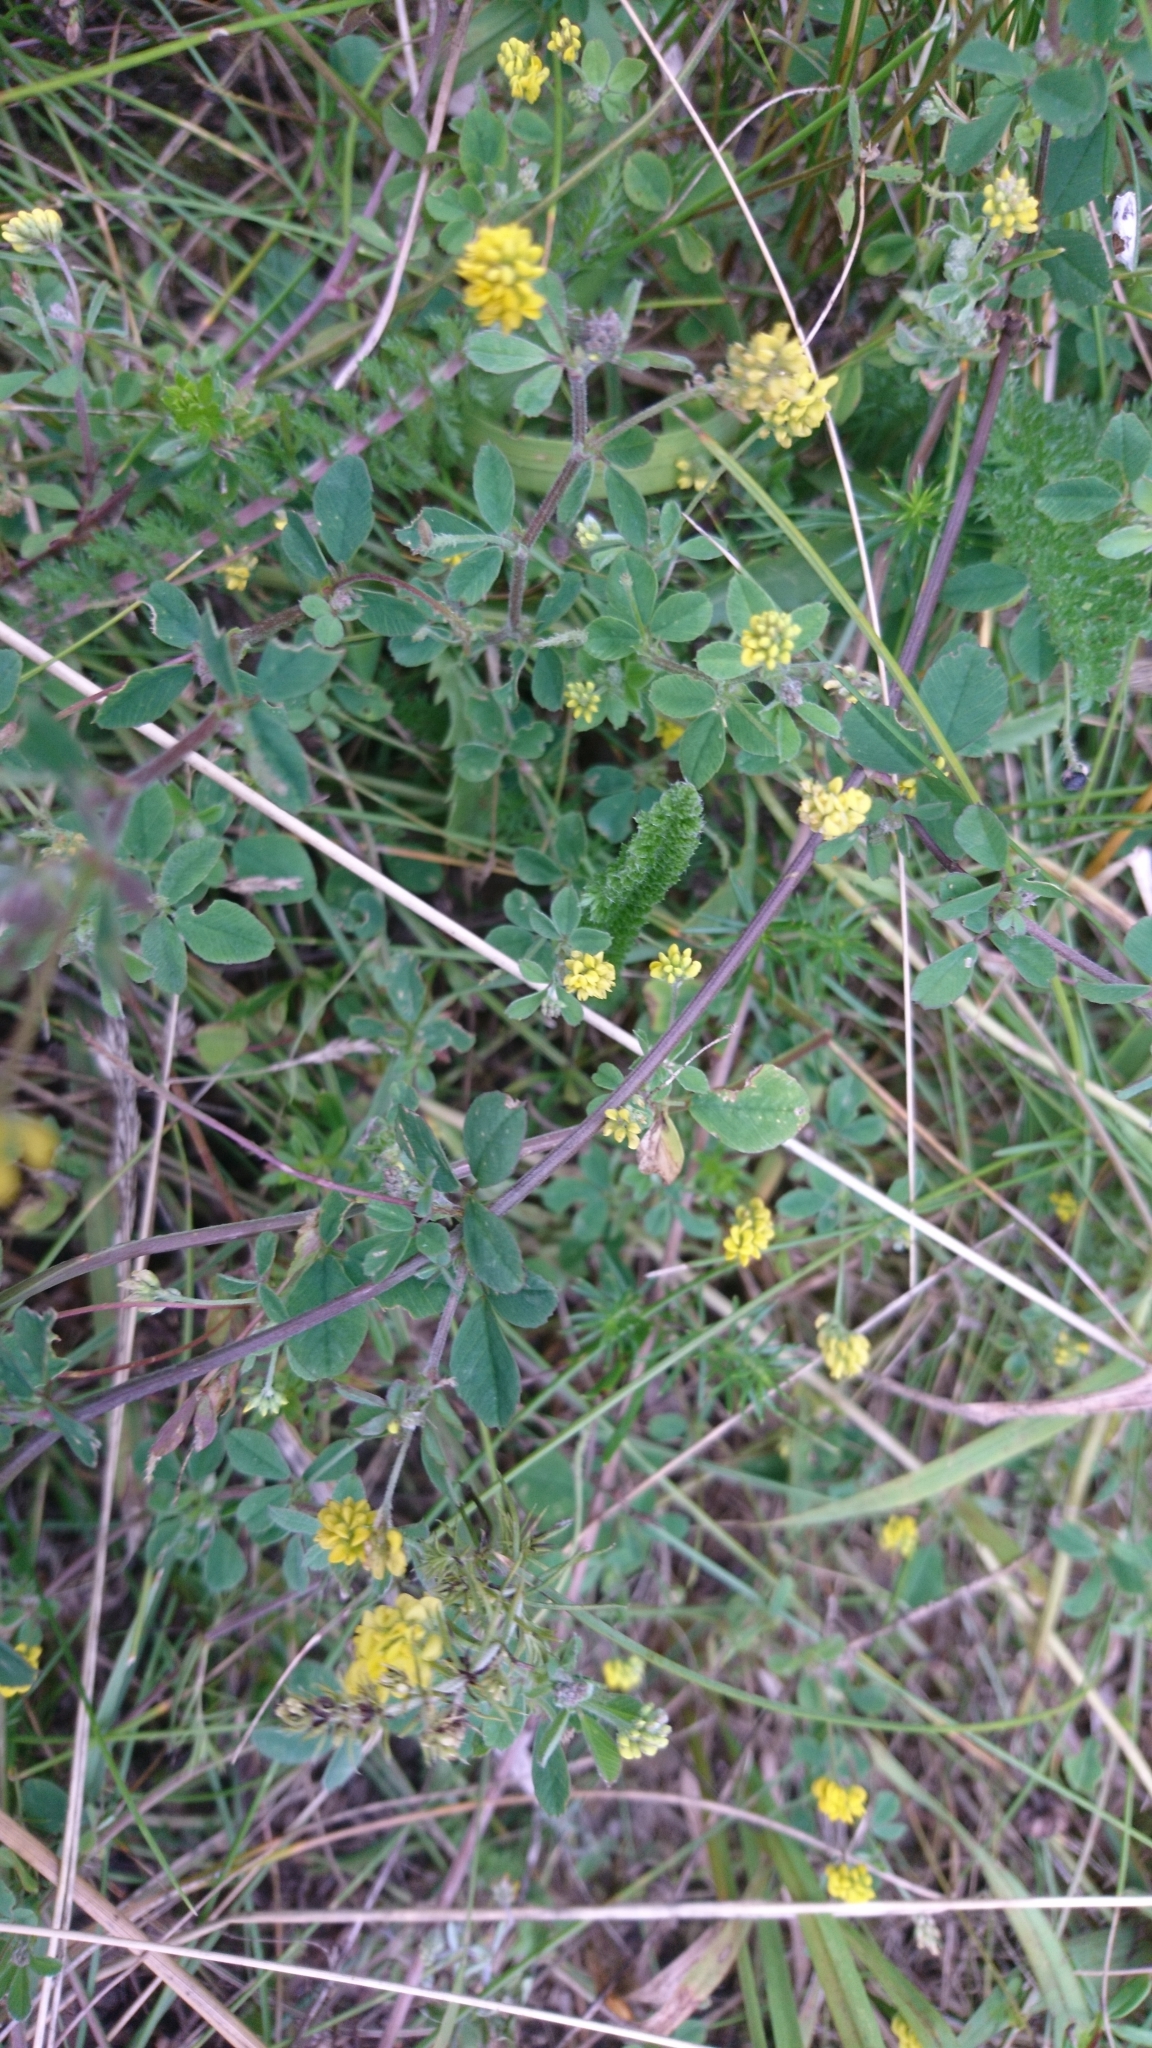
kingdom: Plantae
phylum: Tracheophyta
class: Magnoliopsida
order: Fabales
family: Fabaceae
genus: Medicago
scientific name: Medicago lupulina
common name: Black medick
